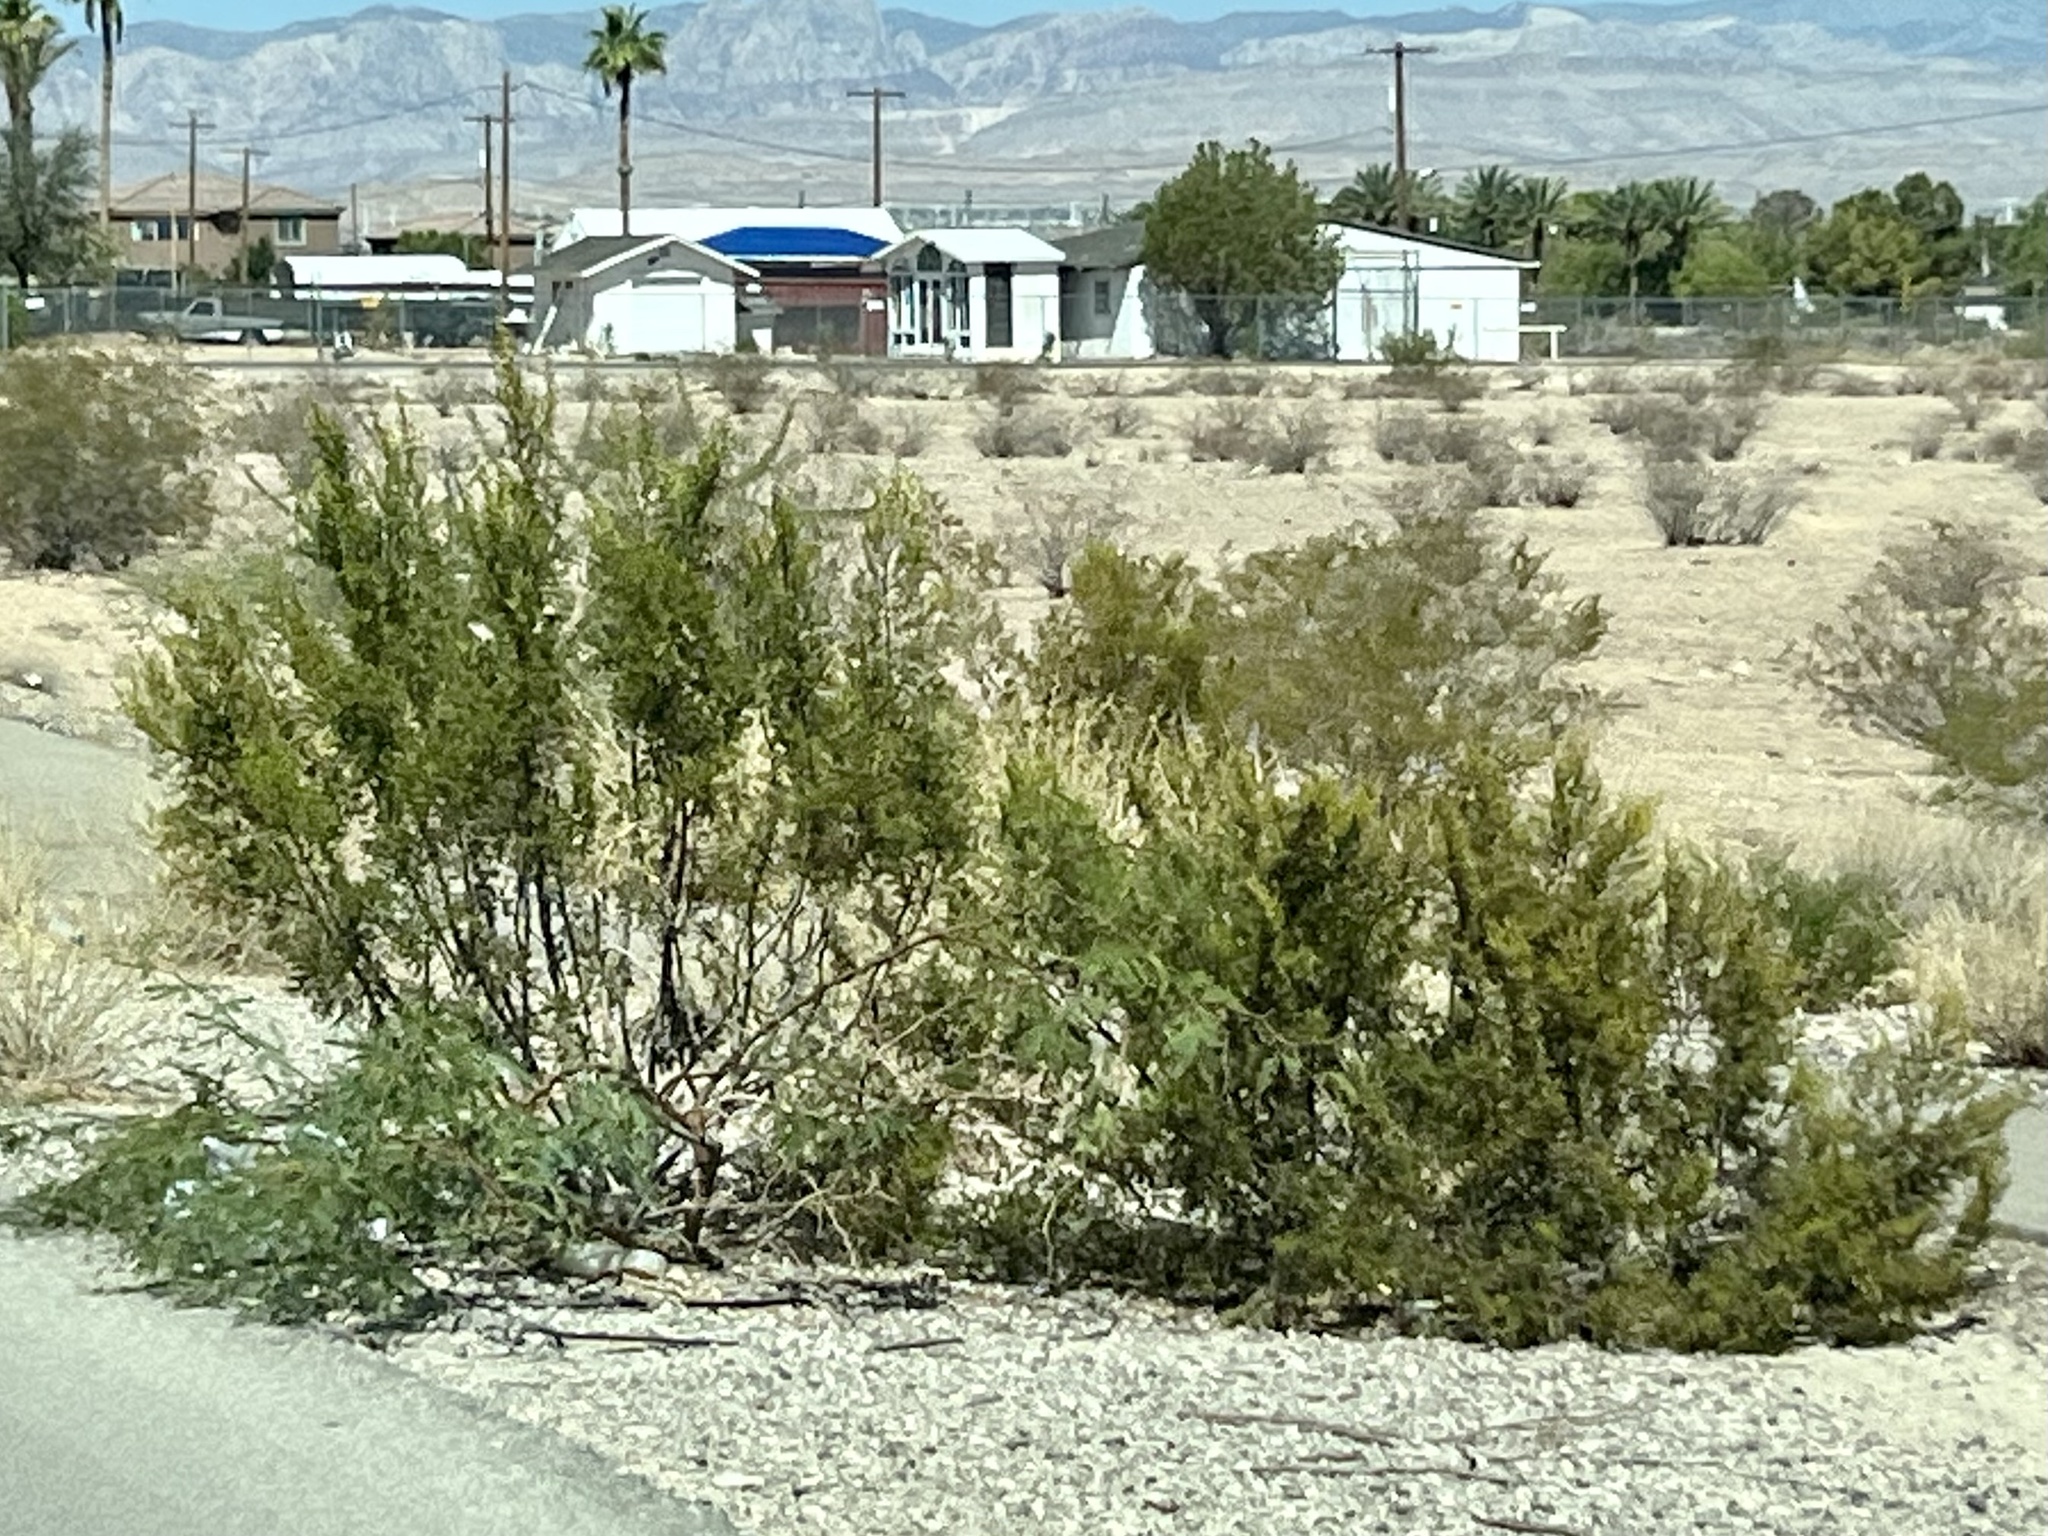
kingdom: Plantae
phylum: Tracheophyta
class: Magnoliopsida
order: Zygophyllales
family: Zygophyllaceae
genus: Larrea
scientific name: Larrea tridentata
